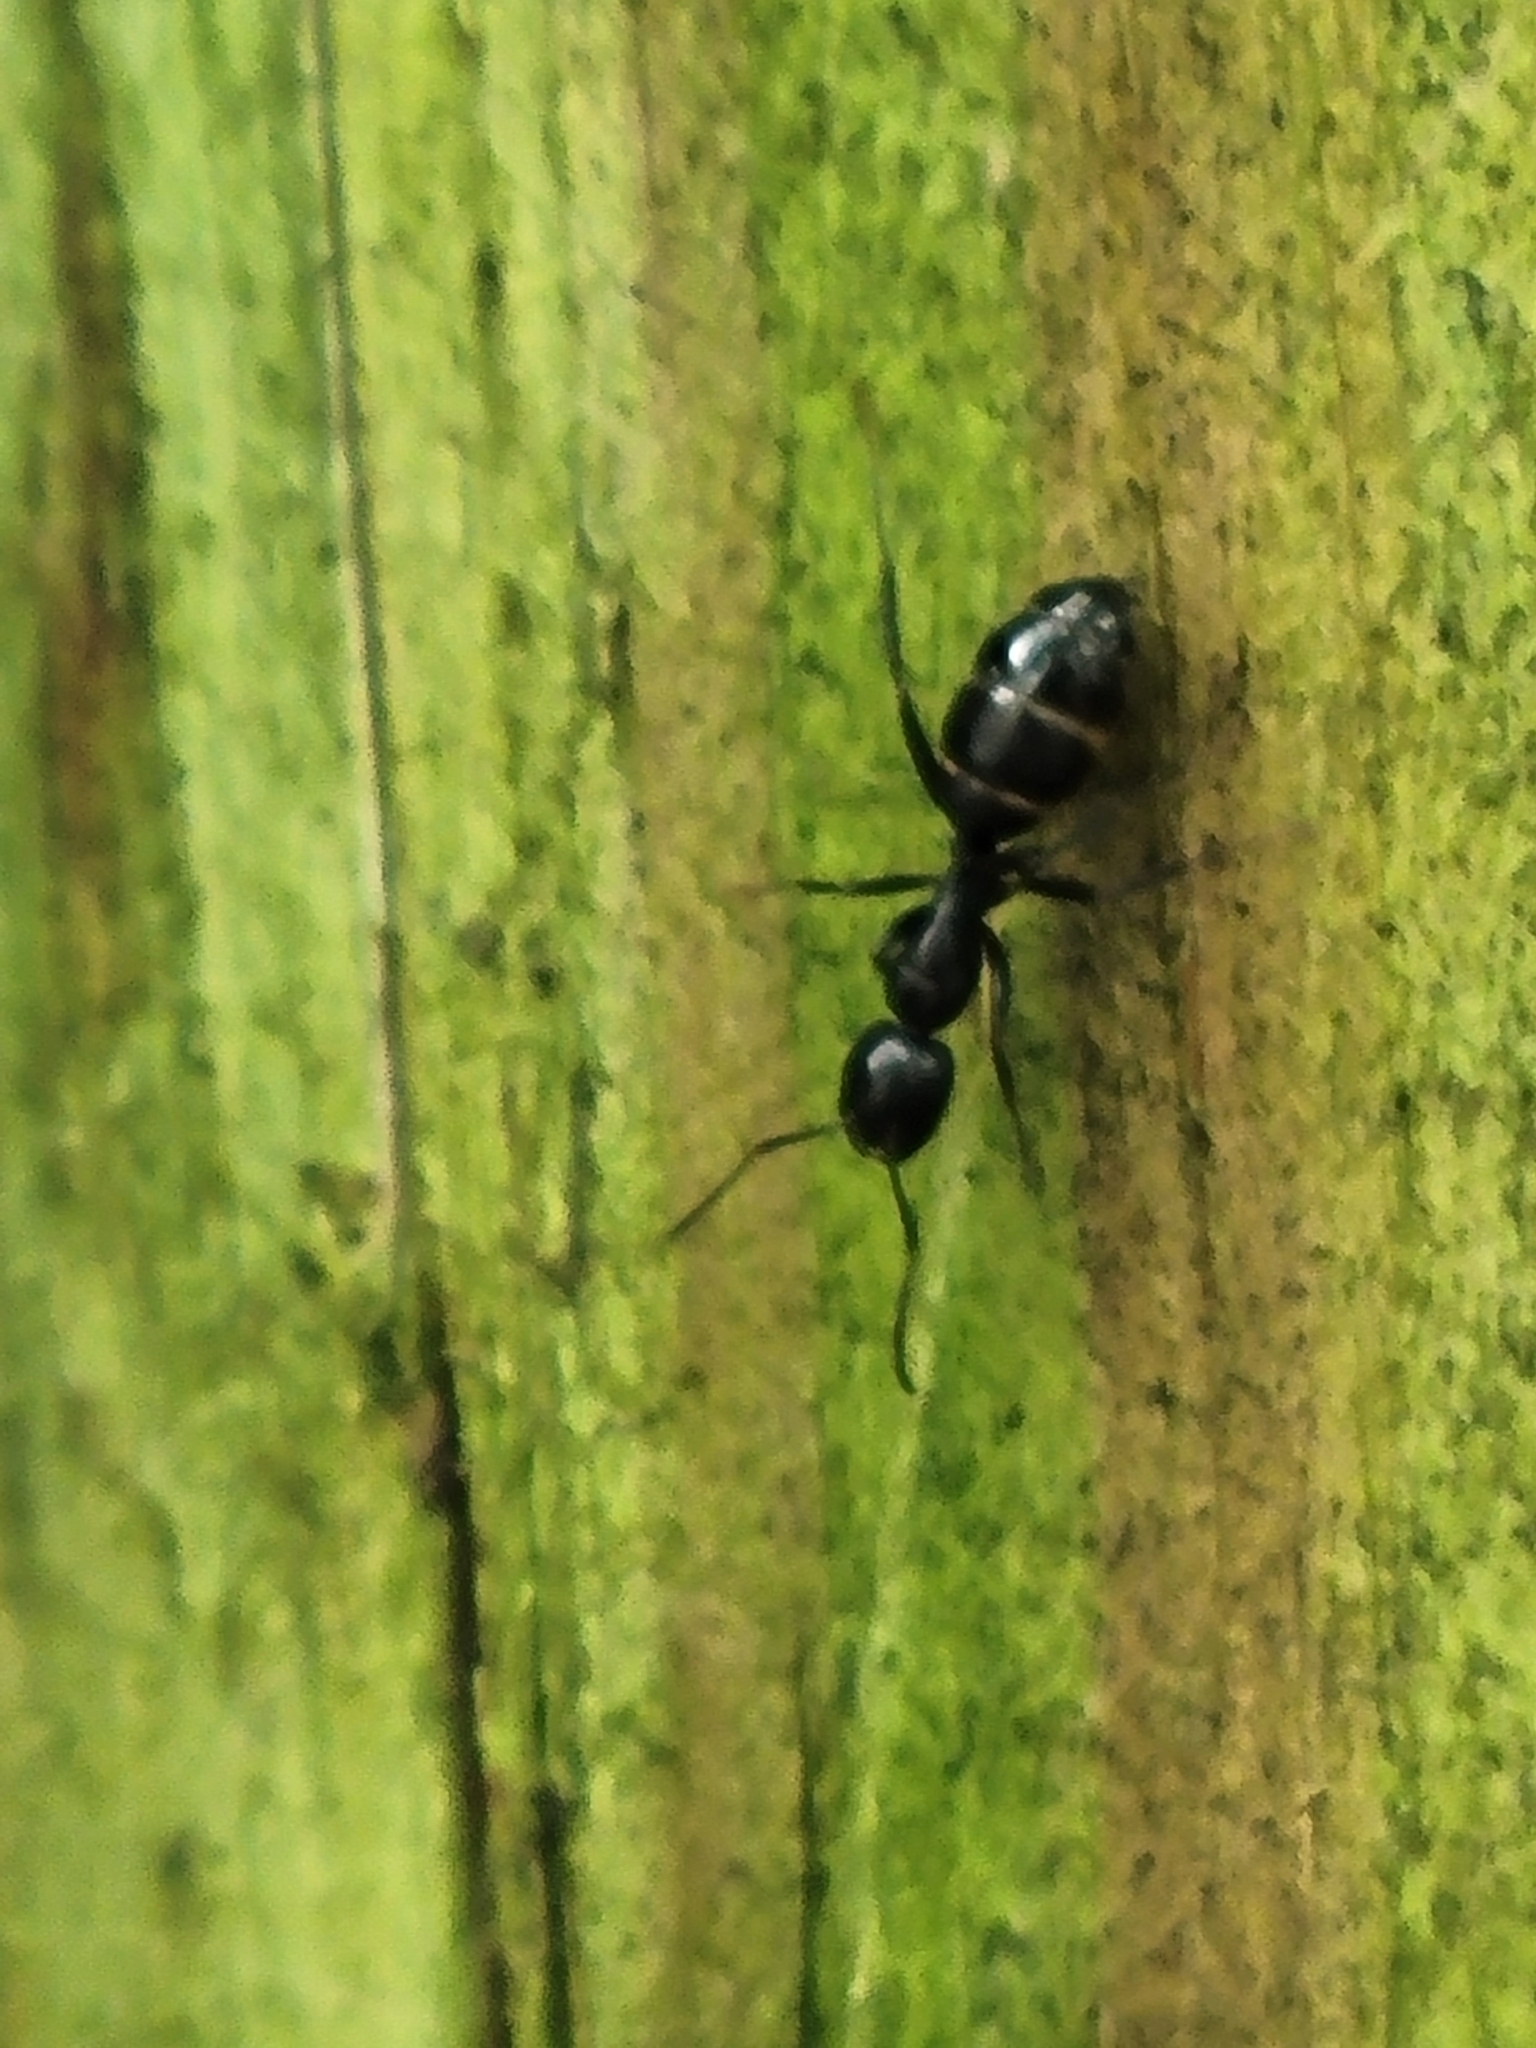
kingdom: Animalia
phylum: Arthropoda
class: Insecta
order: Hymenoptera
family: Formicidae
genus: Camponotus
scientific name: Camponotus nearcticus
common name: Smaller carpenter ant
